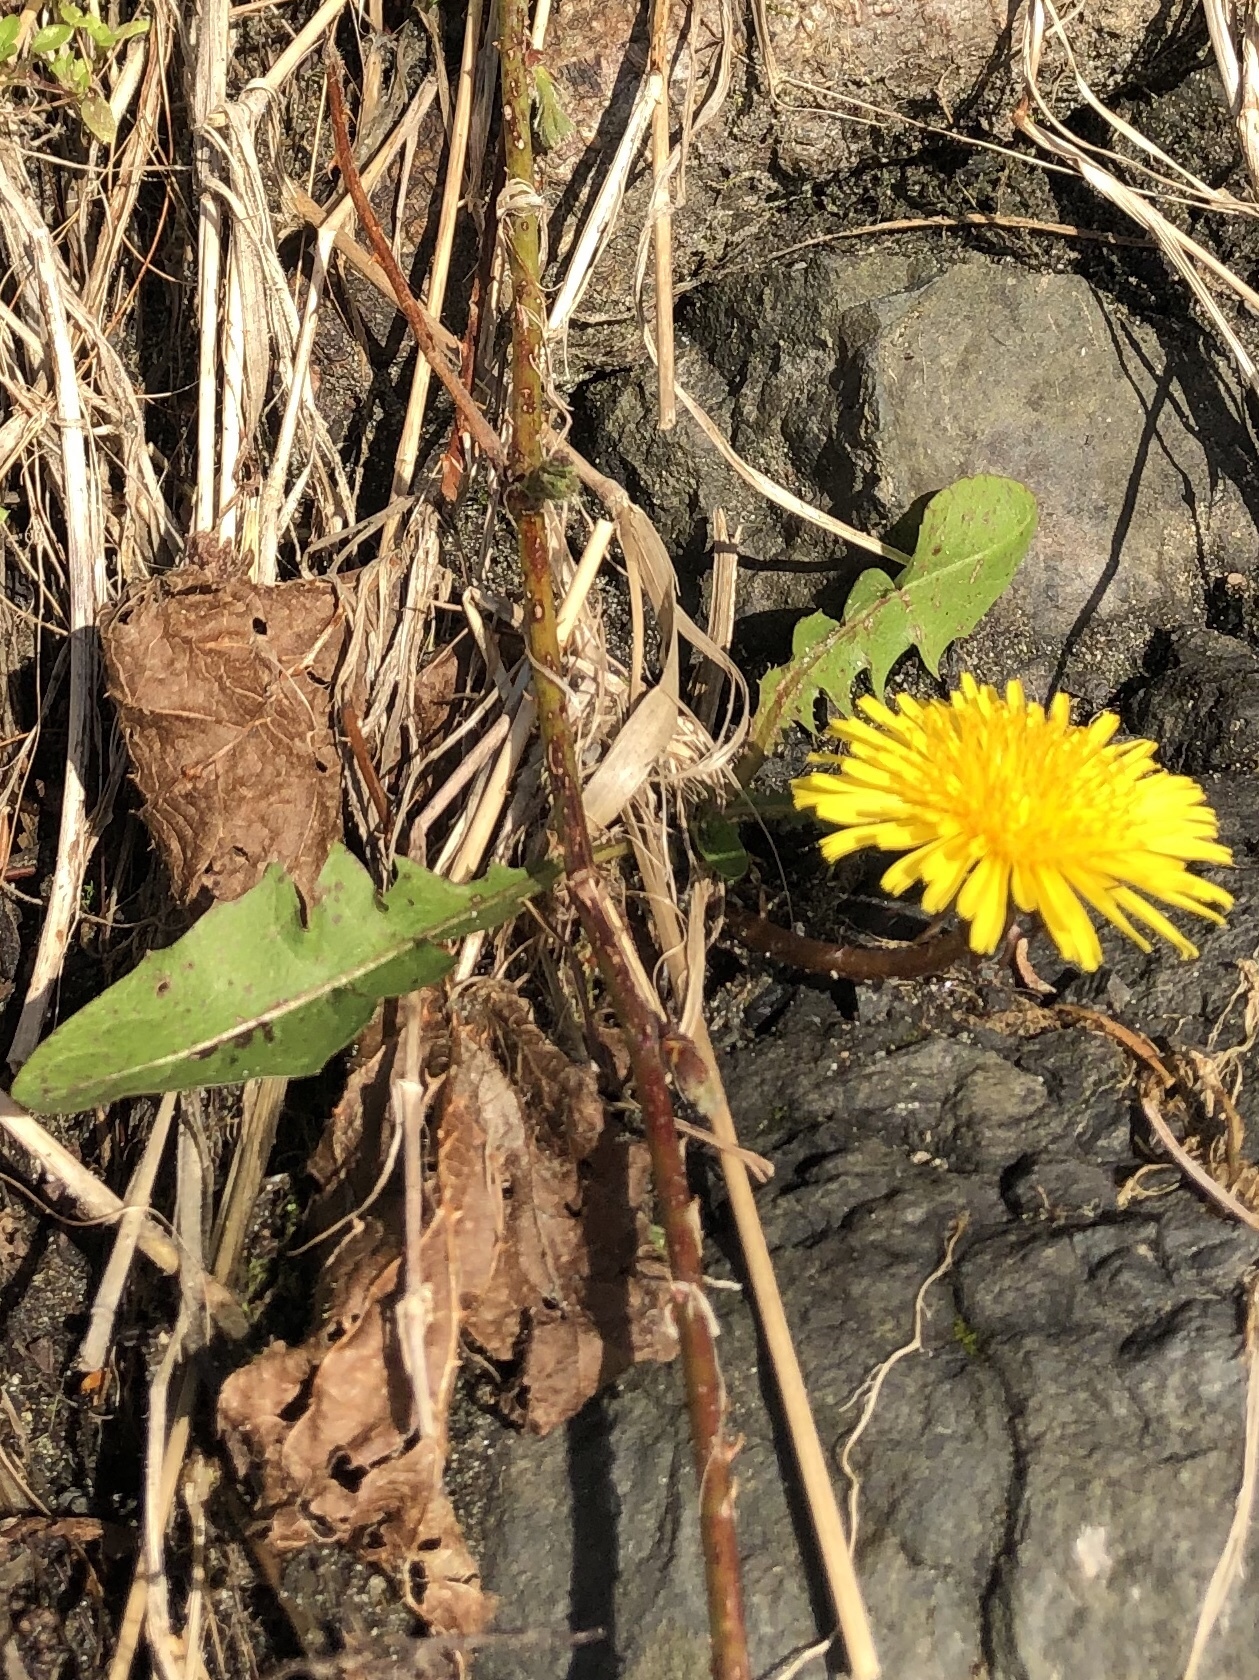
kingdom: Plantae
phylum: Tracheophyta
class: Magnoliopsida
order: Asterales
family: Asteraceae
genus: Taraxacum
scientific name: Taraxacum
